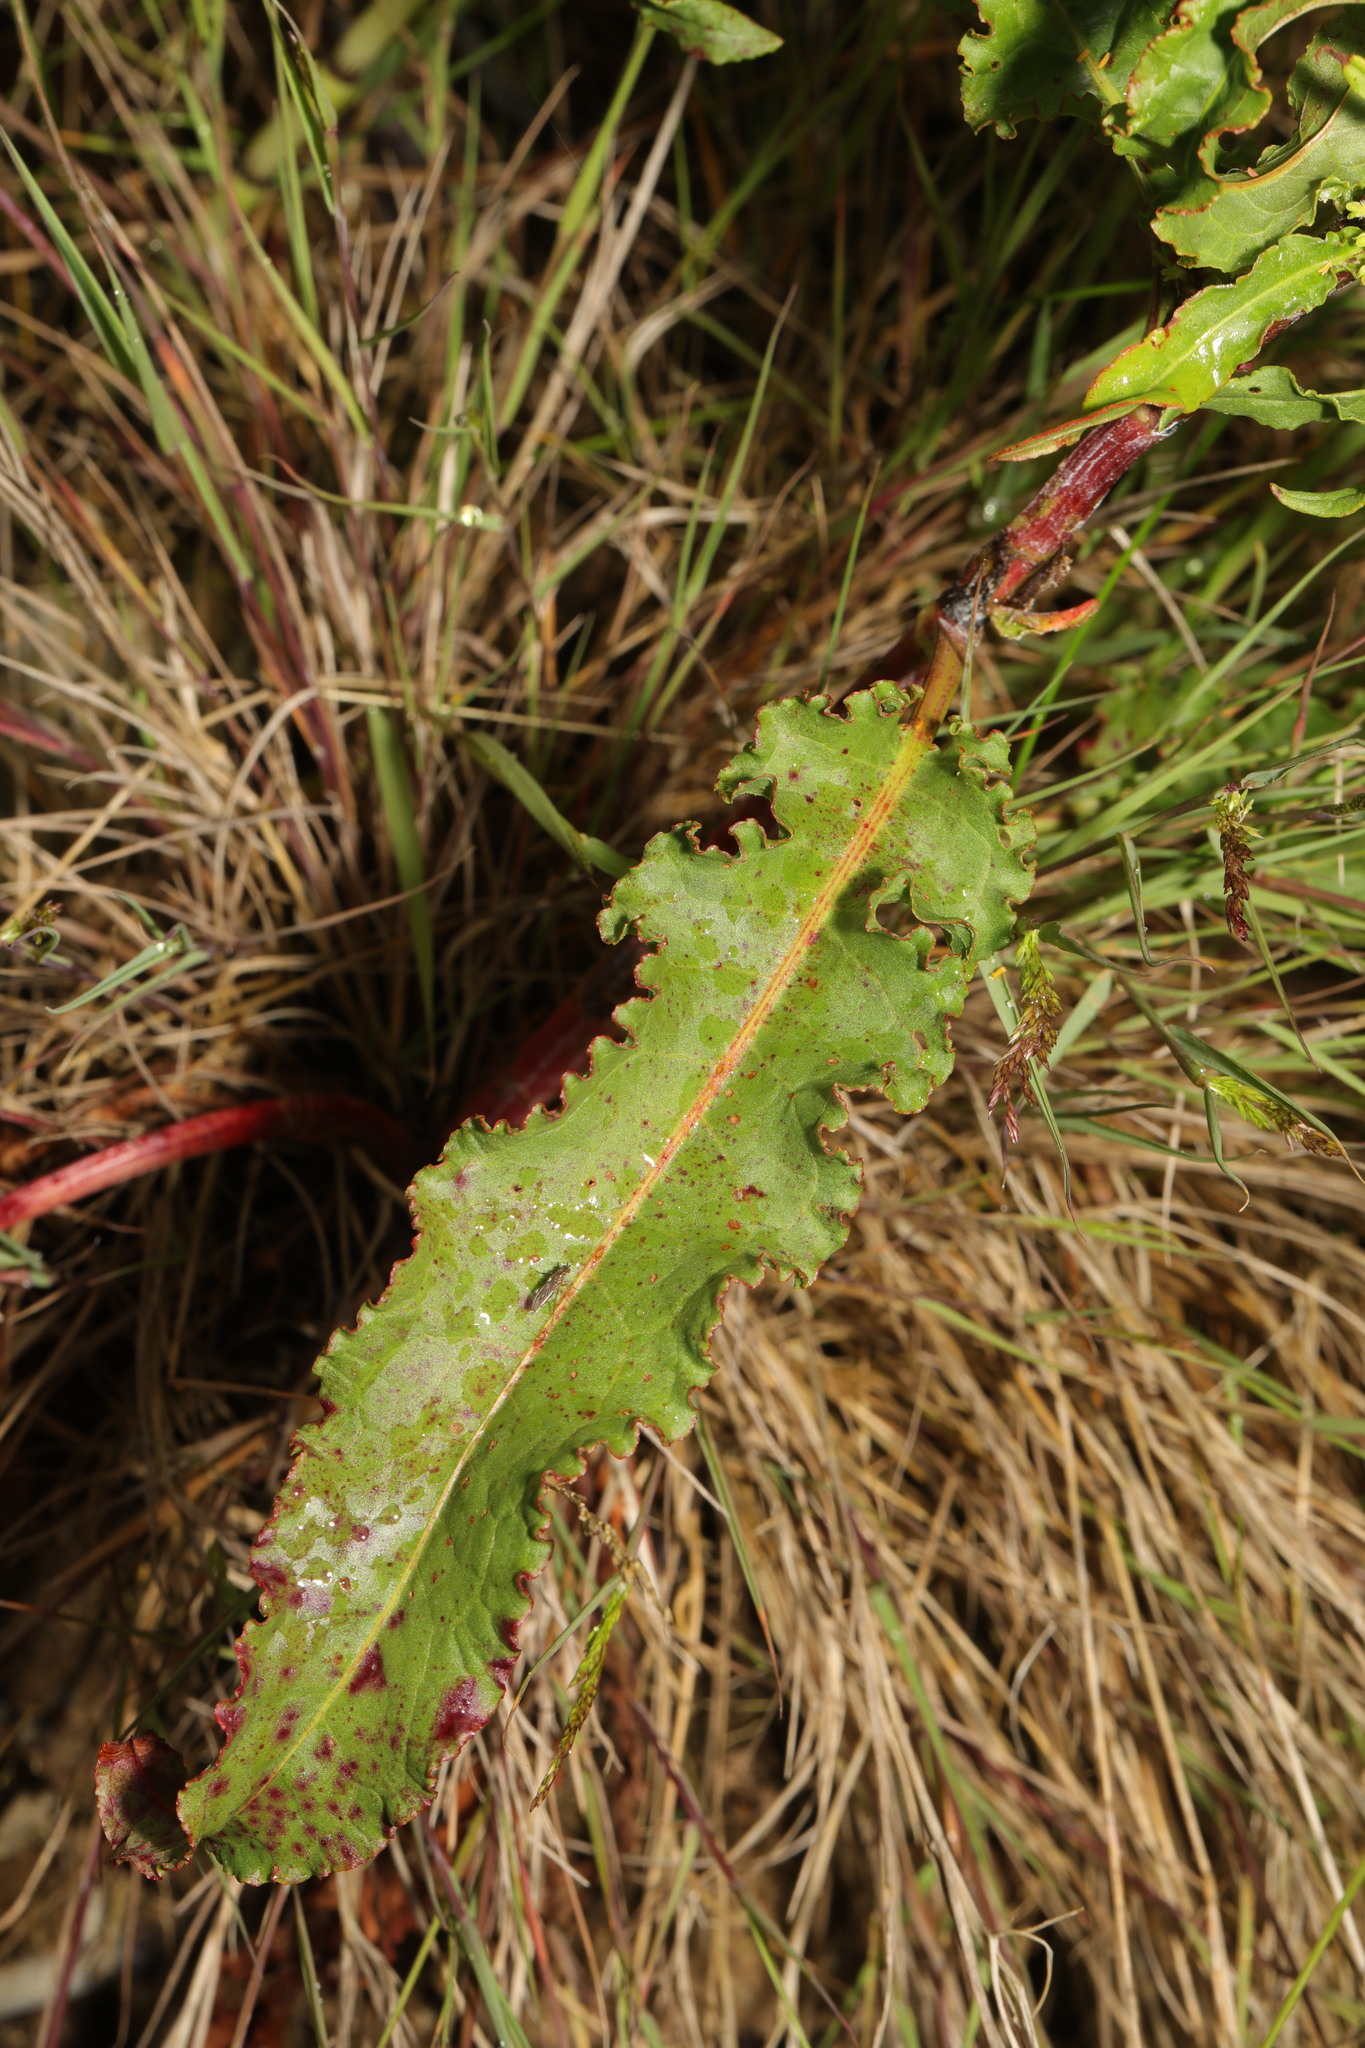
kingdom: Plantae
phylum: Tracheophyta
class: Magnoliopsida
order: Caryophyllales
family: Polygonaceae
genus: Rumex
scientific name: Rumex crispus
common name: Curled dock
